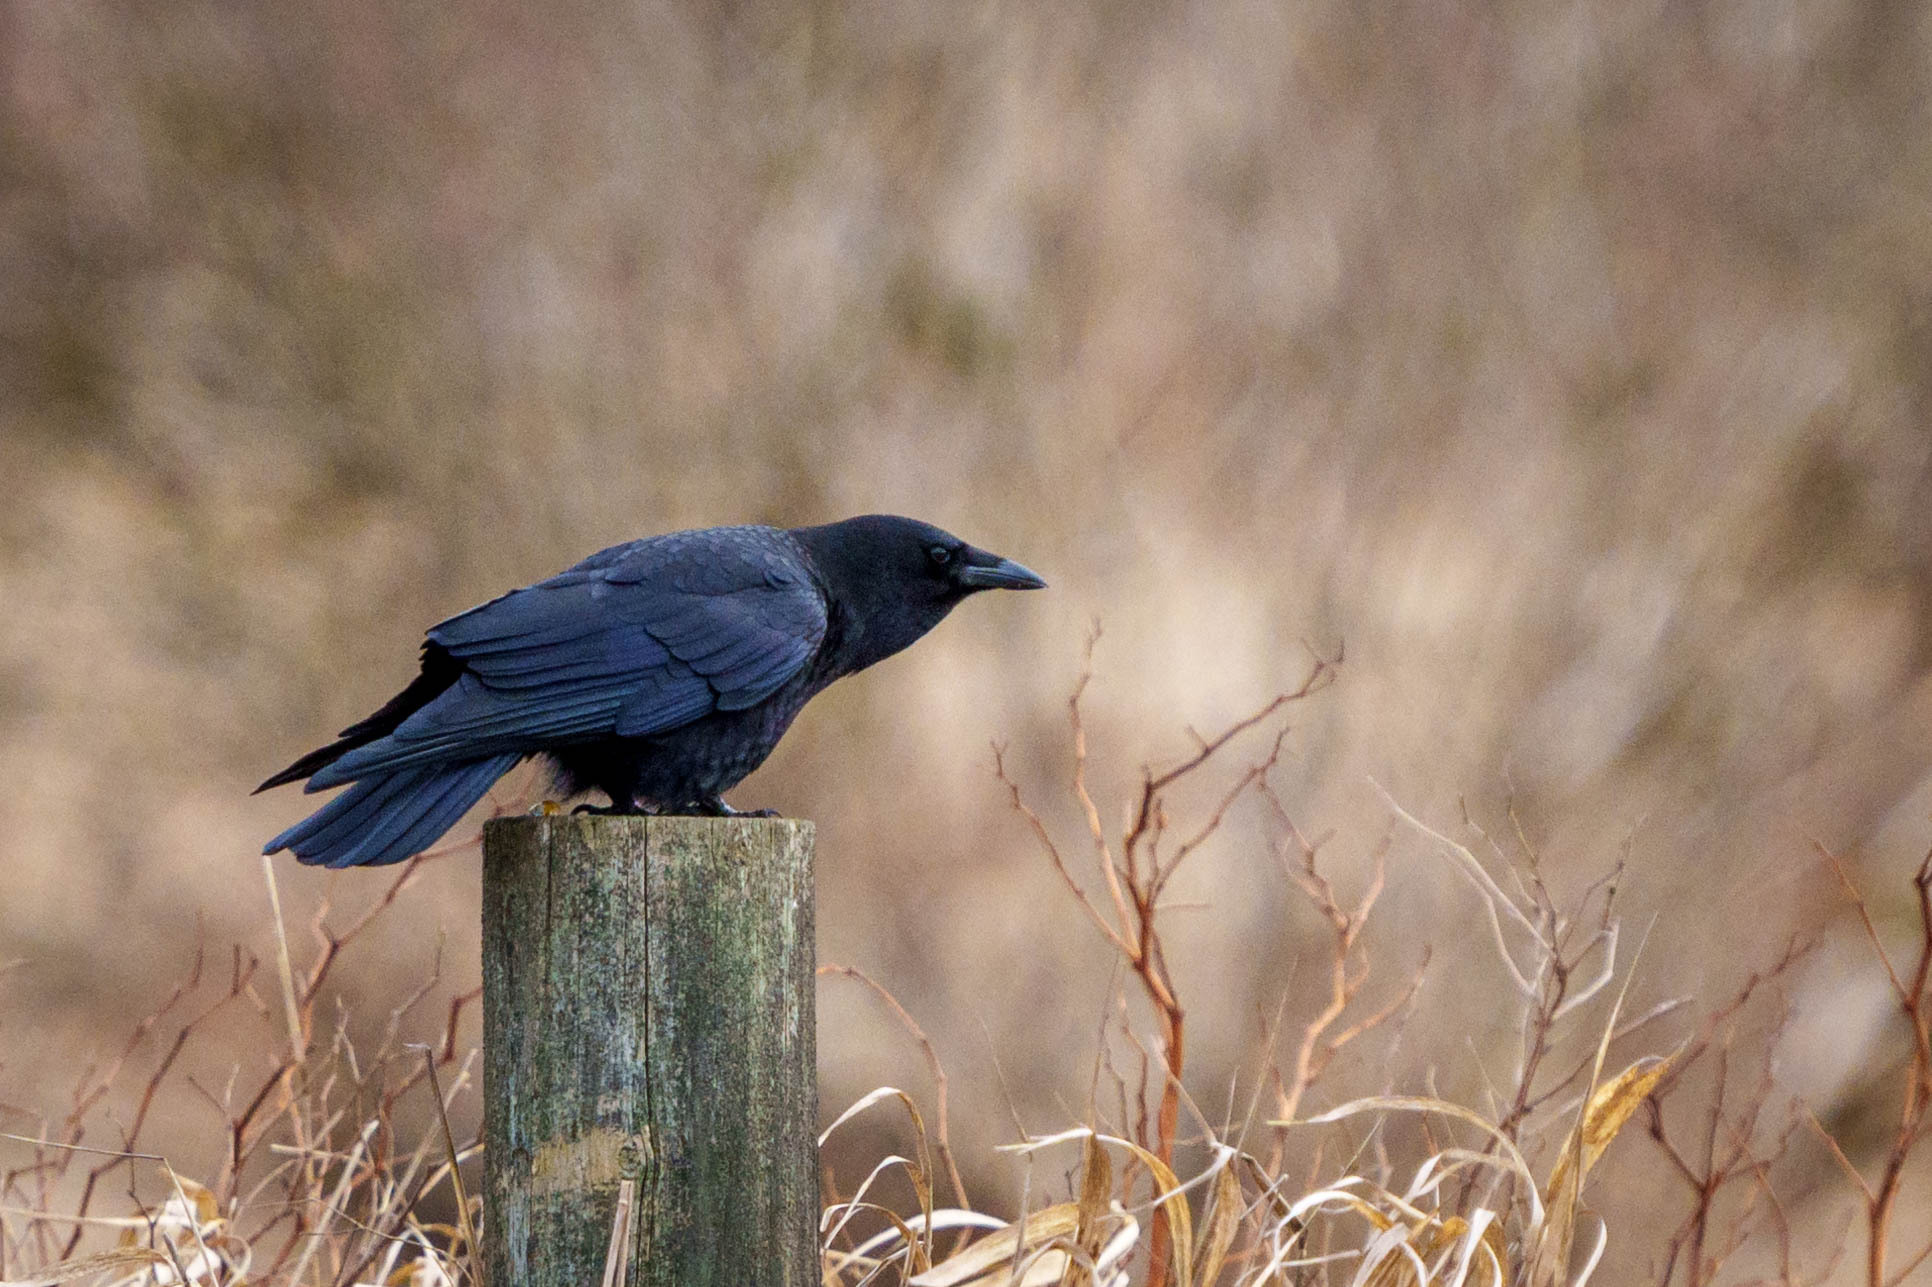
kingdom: Animalia
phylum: Chordata
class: Aves
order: Passeriformes
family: Corvidae
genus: Corvus
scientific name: Corvus brachyrhynchos
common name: American crow
